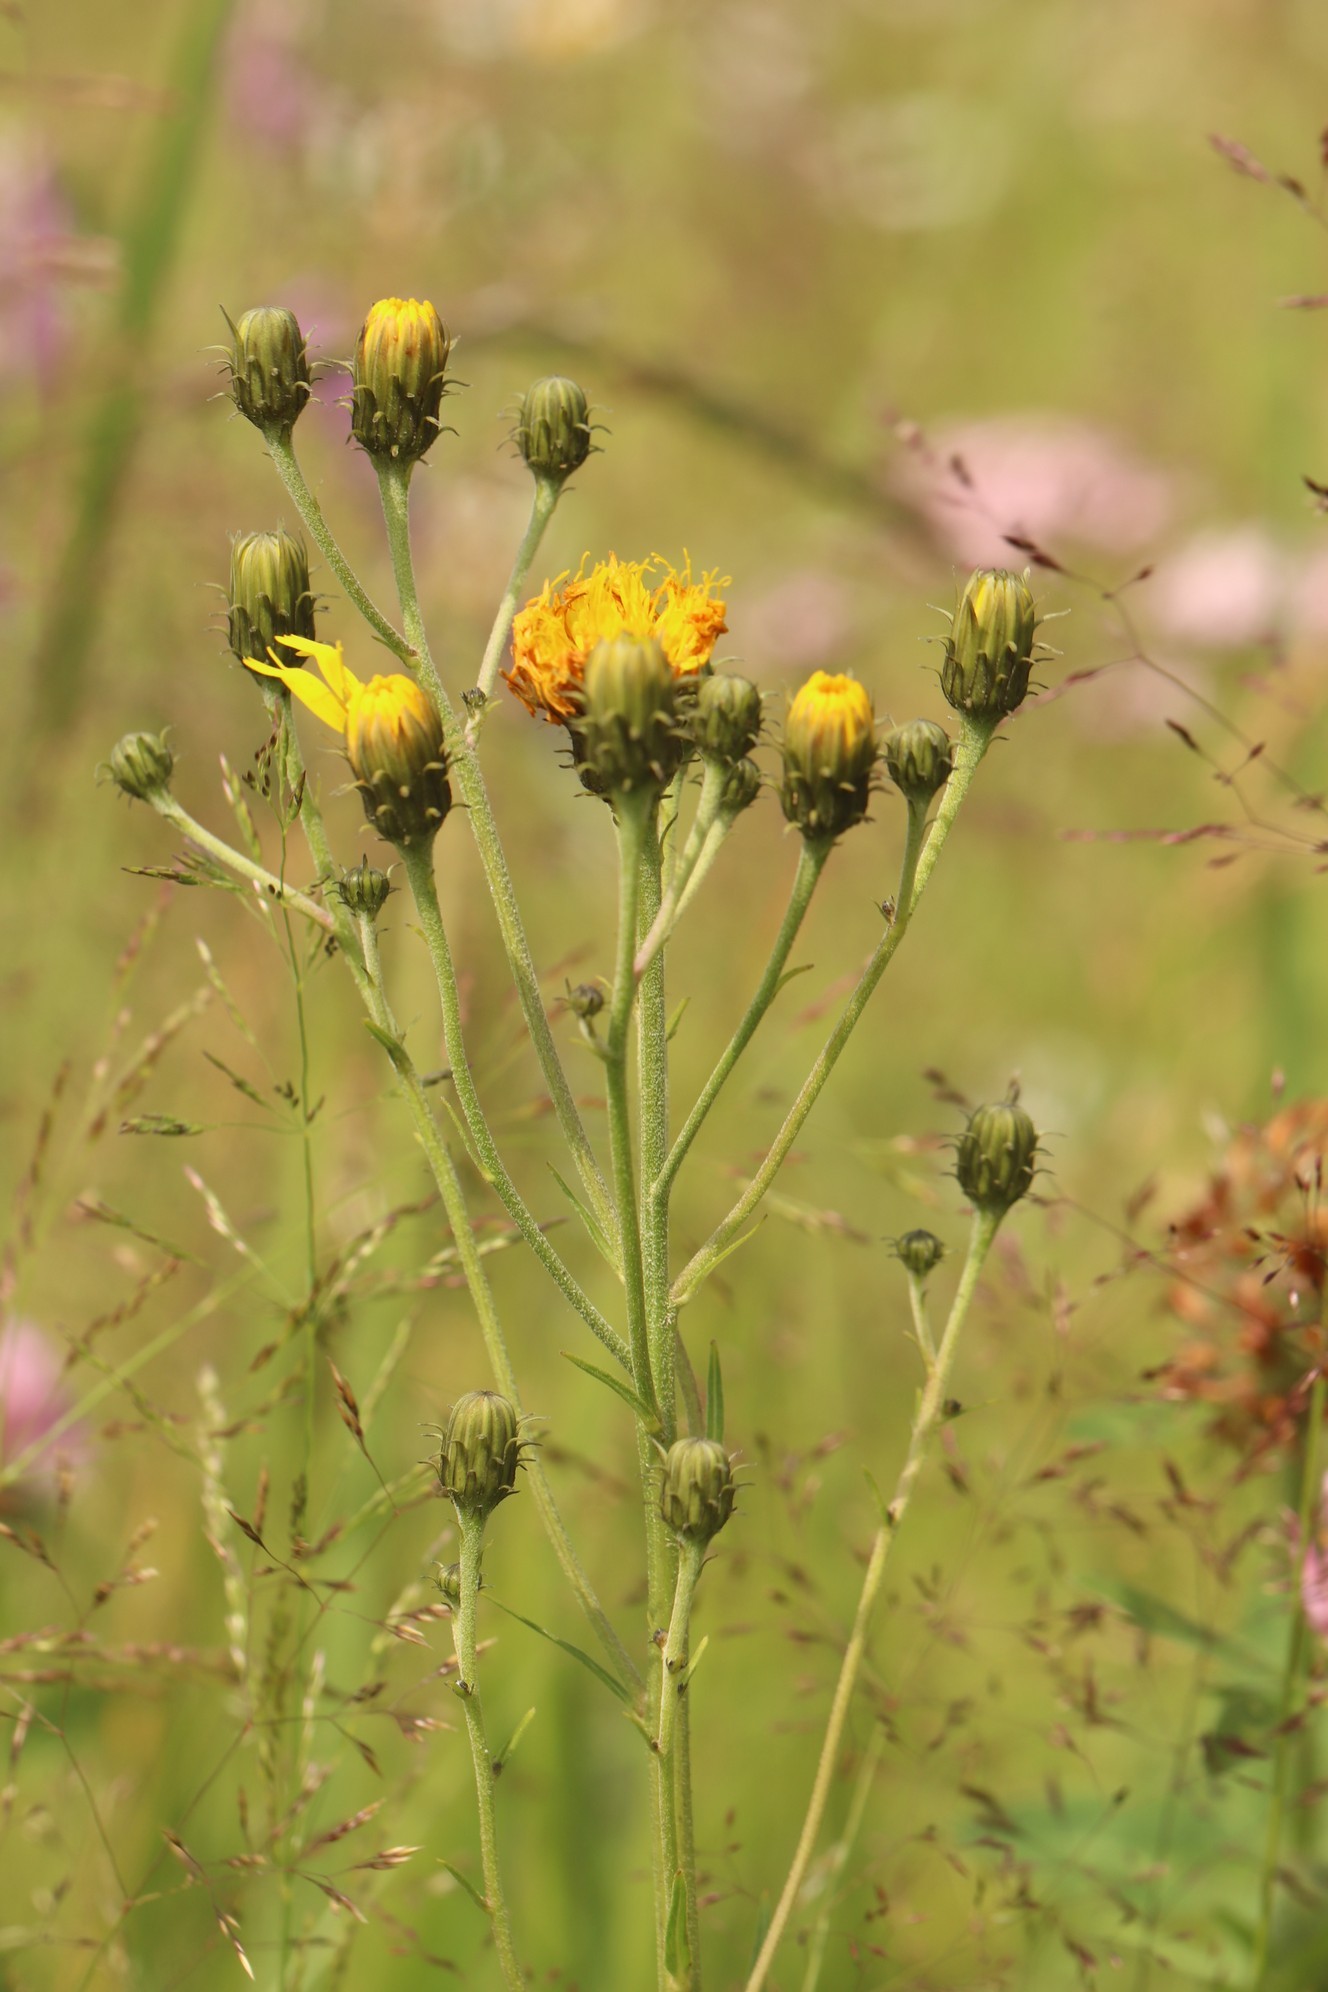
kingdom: Plantae
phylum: Tracheophyta
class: Magnoliopsida
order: Asterales
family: Asteraceae
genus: Hieracium
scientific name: Hieracium umbellatum
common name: Northern hawkweed
